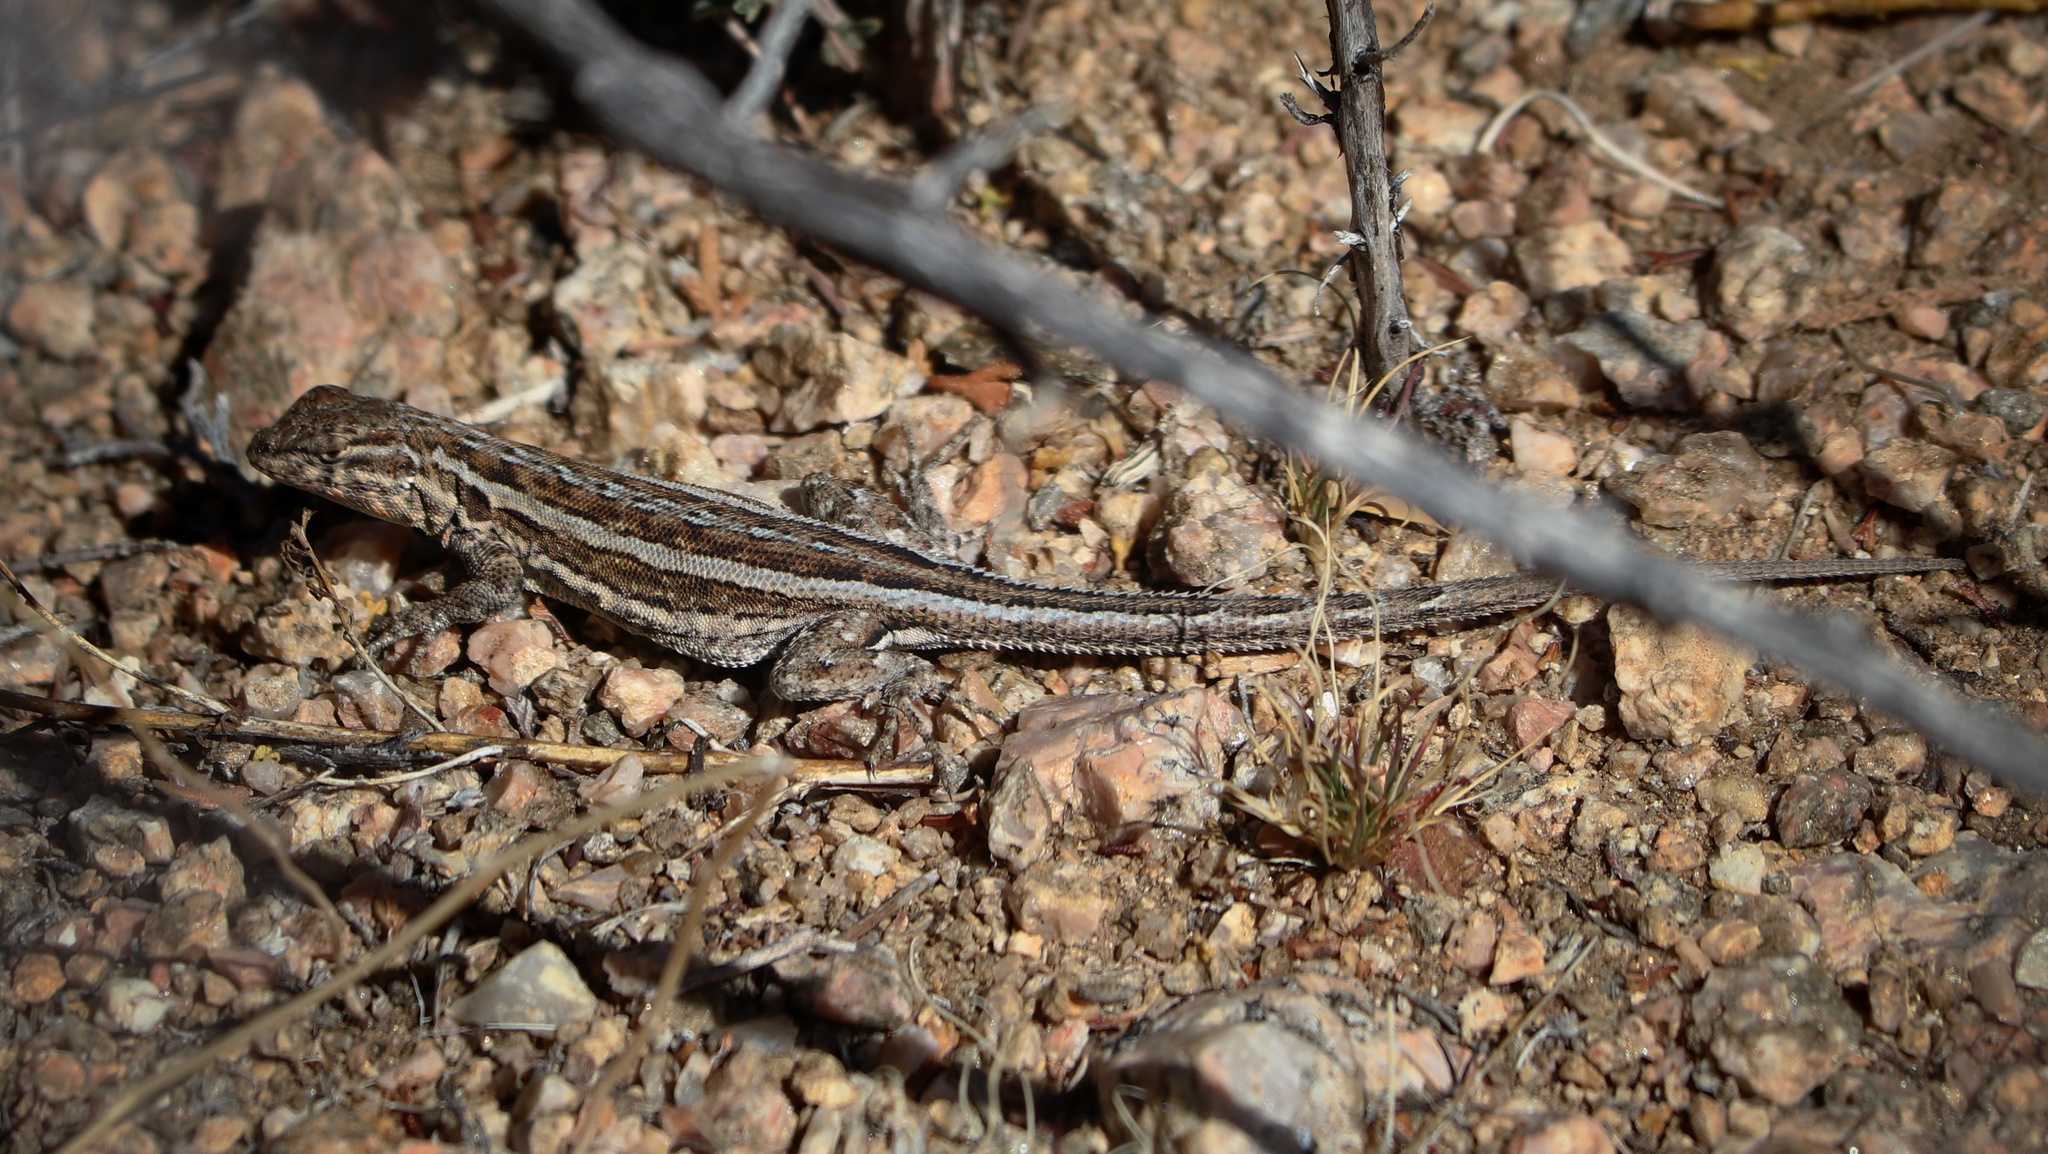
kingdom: Animalia
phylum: Chordata
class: Squamata
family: Phrynosomatidae
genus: Uta
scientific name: Uta stansburiana
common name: Side-blotched lizard
